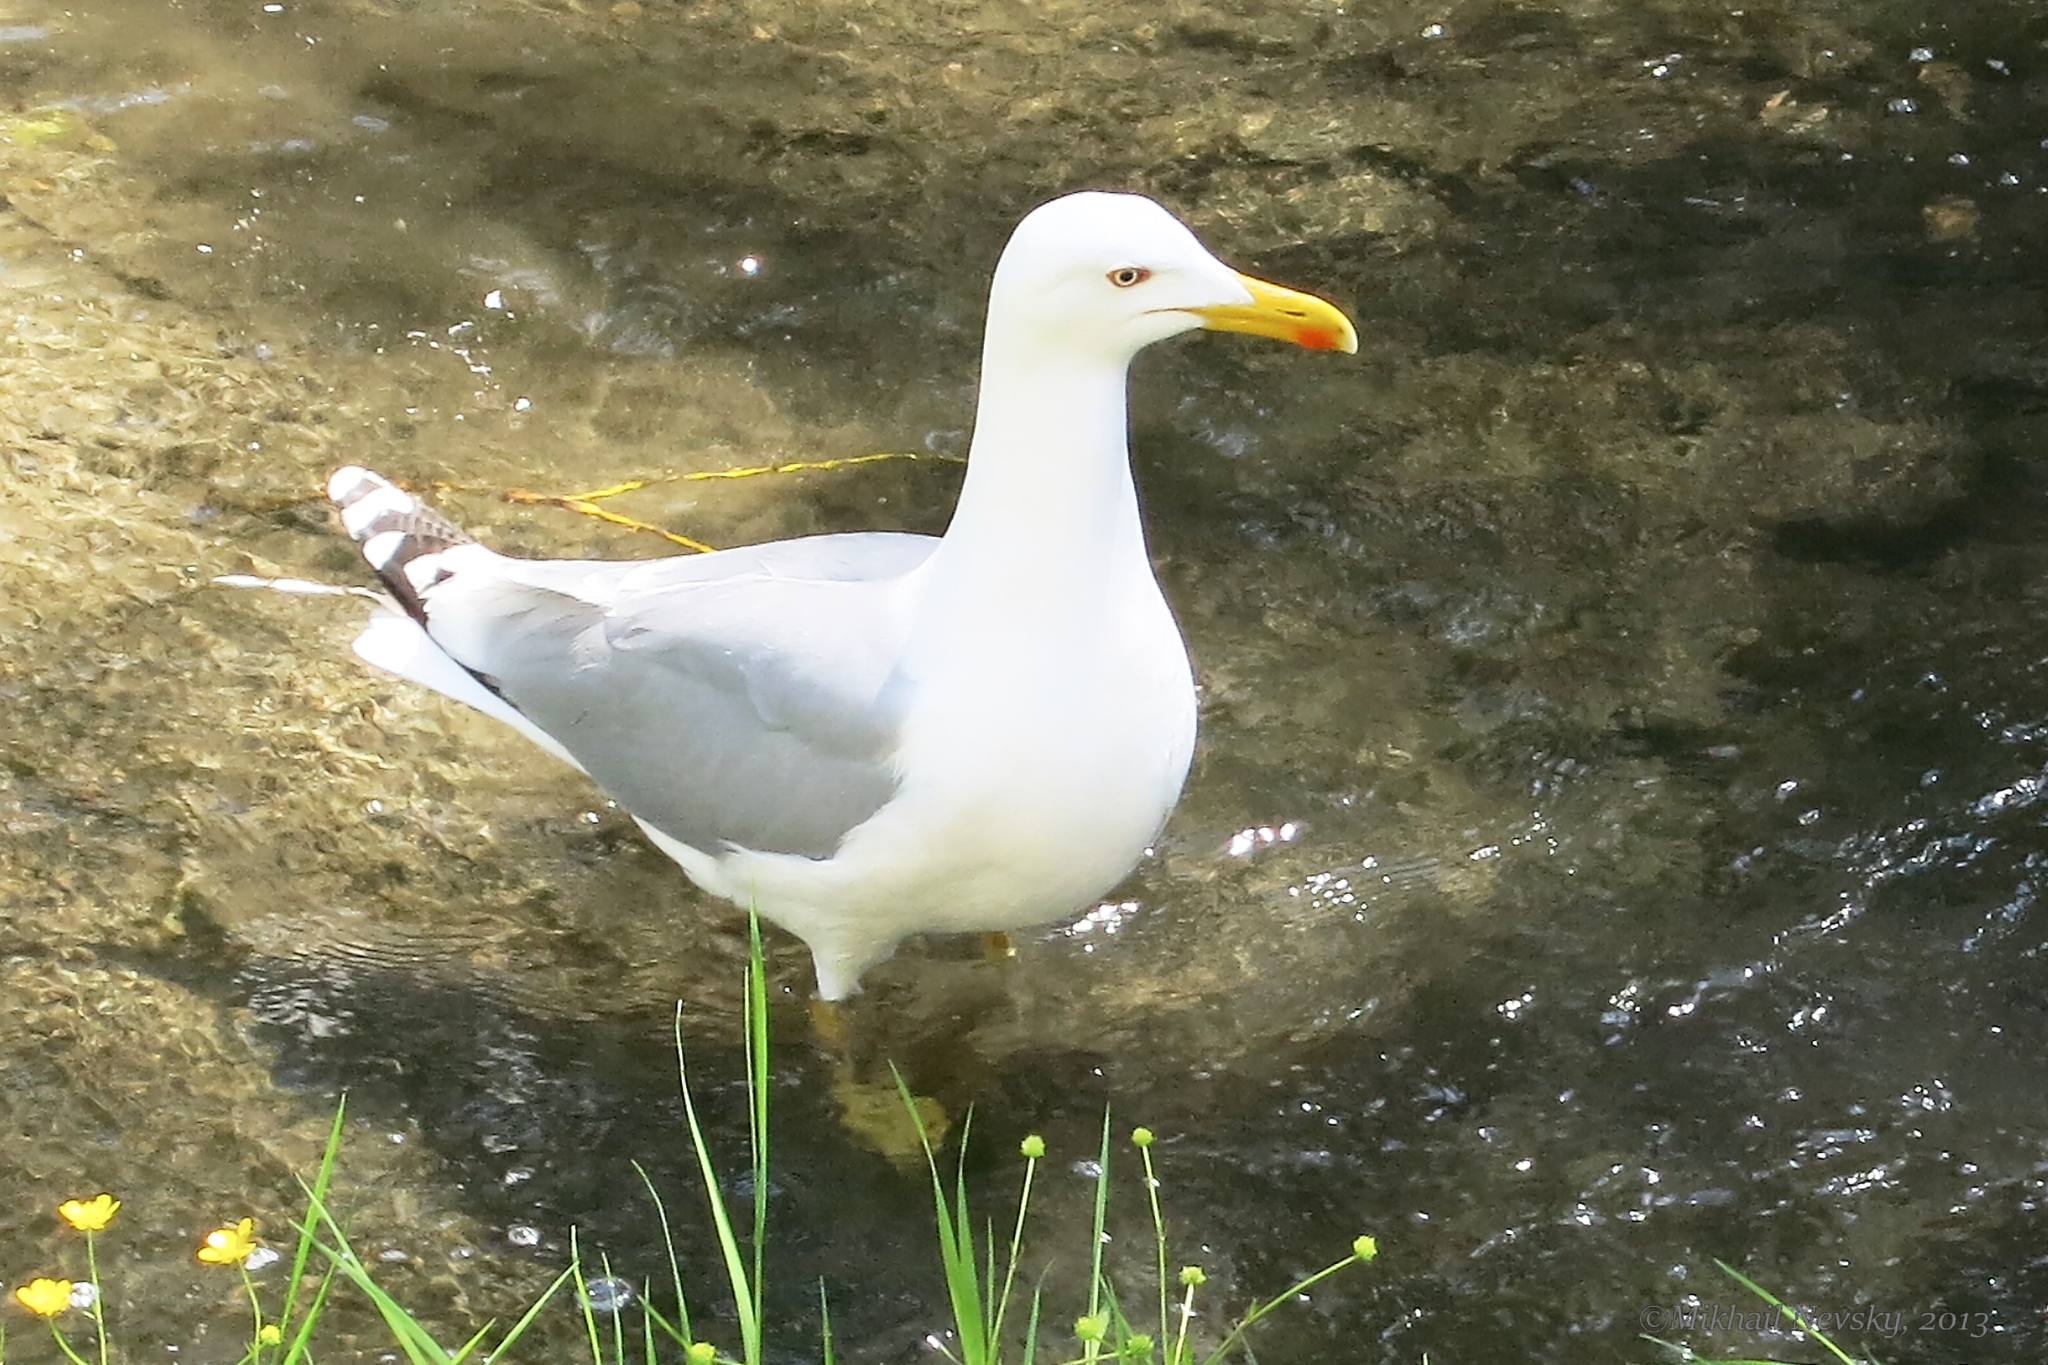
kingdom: Animalia
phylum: Chordata
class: Aves
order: Charadriiformes
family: Laridae
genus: Larus
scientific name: Larus michahellis
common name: Yellow-legged gull
